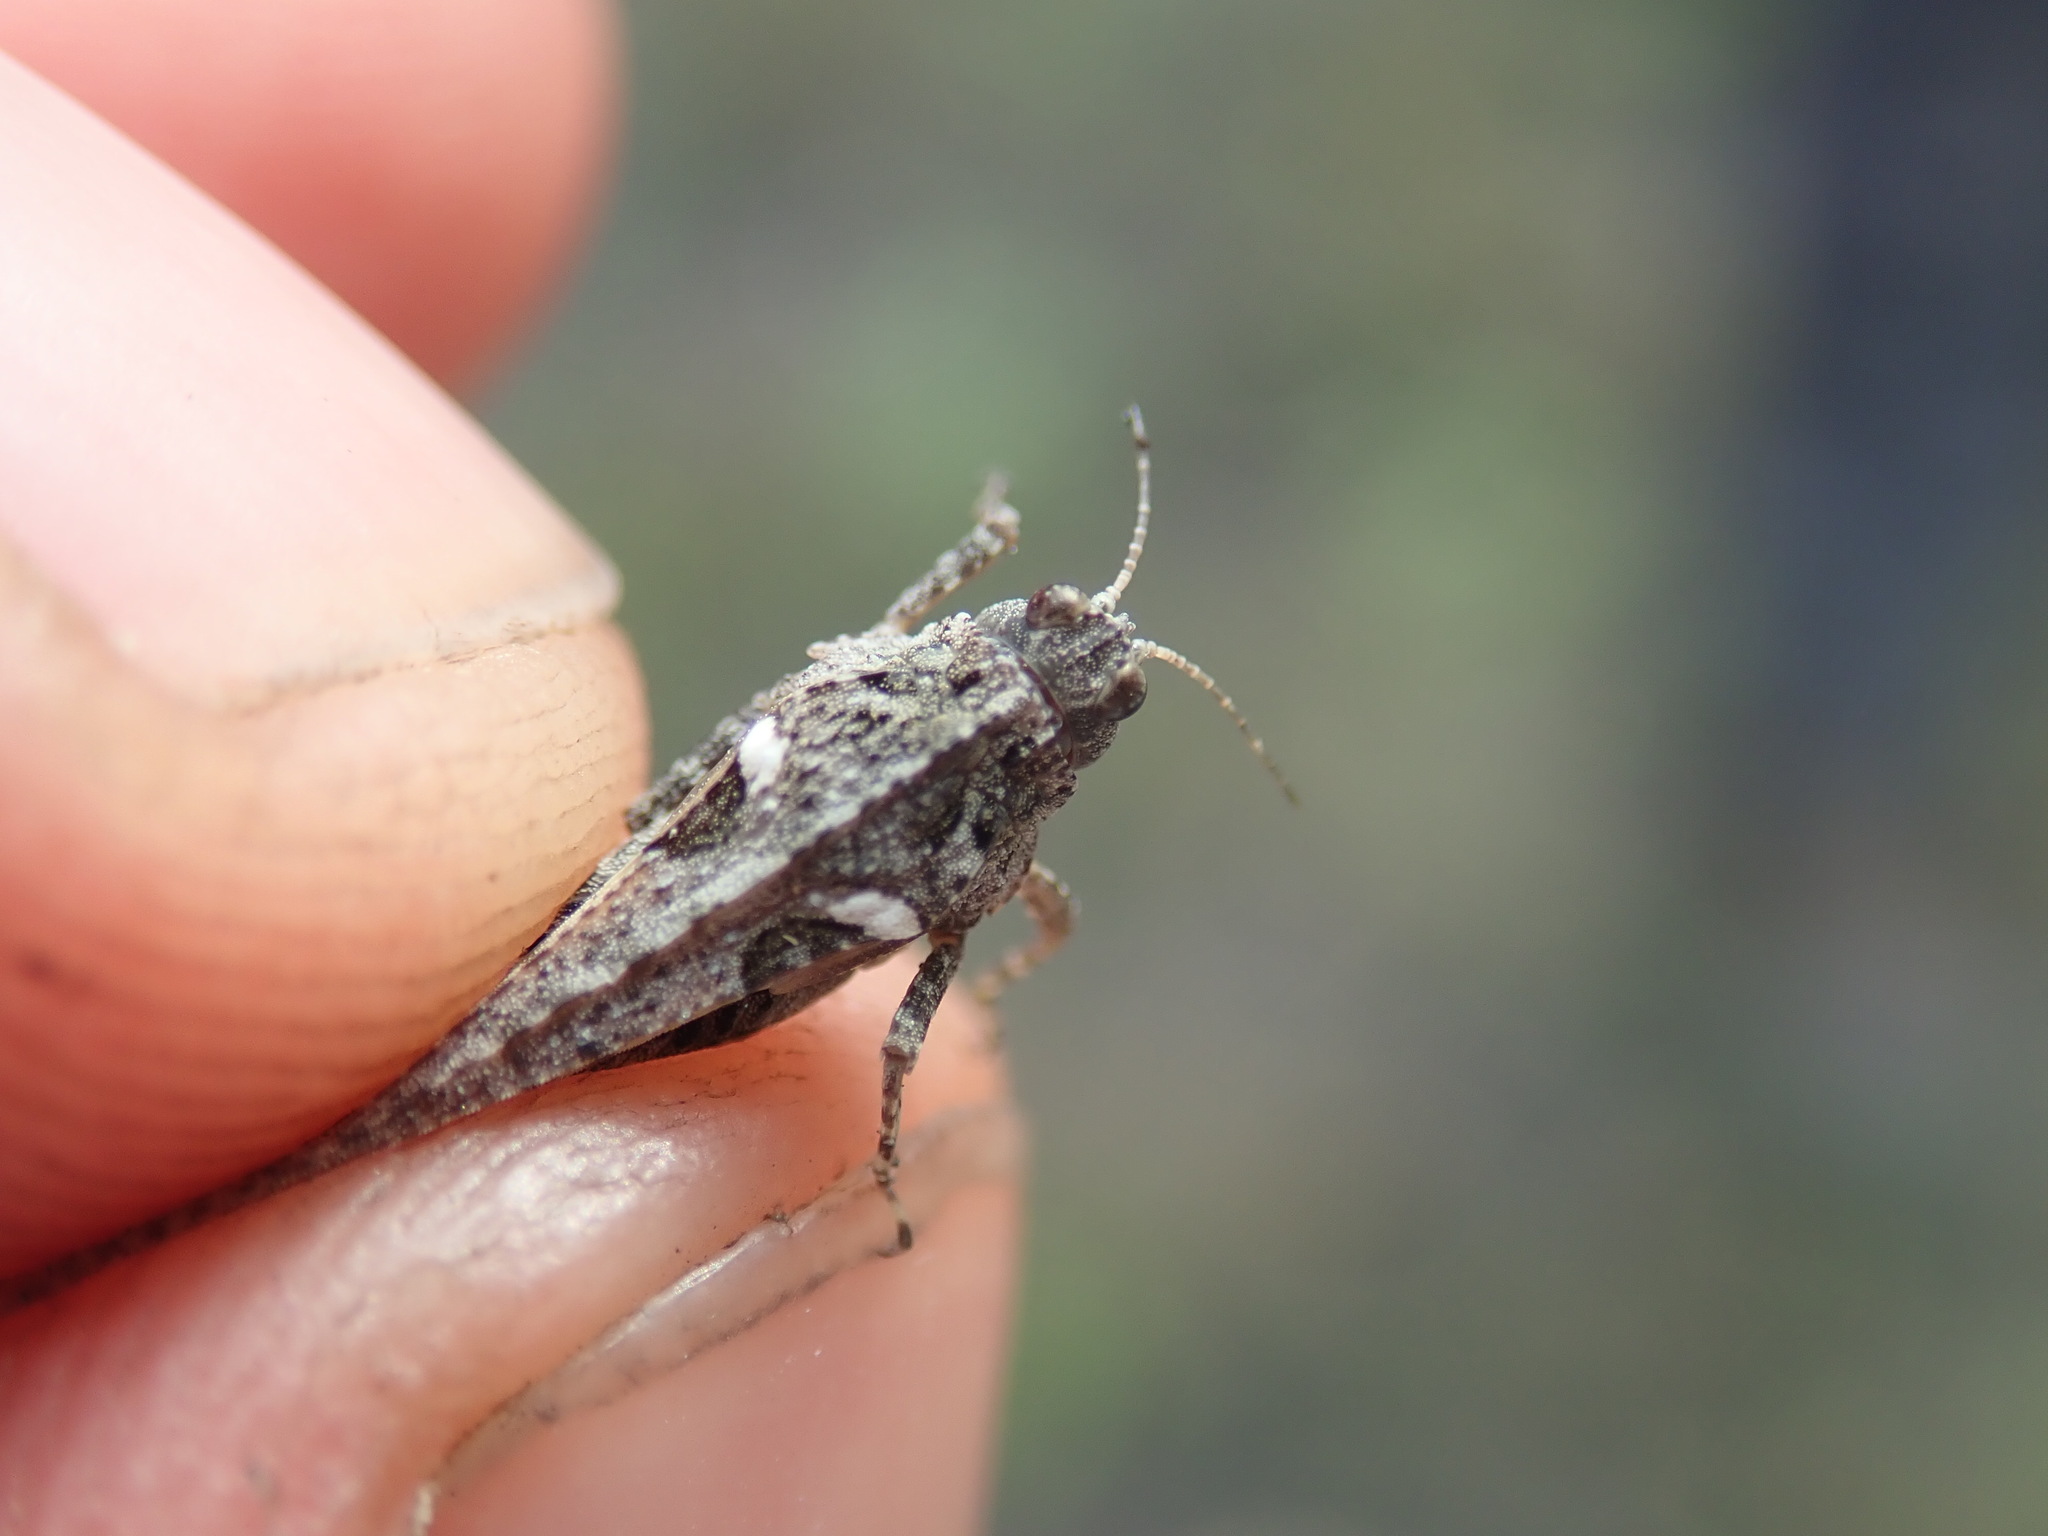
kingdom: Animalia
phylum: Arthropoda
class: Insecta
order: Orthoptera
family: Tetrigidae
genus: Tetrix
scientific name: Tetrix ceperoi
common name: Cepero's ground-hopper
